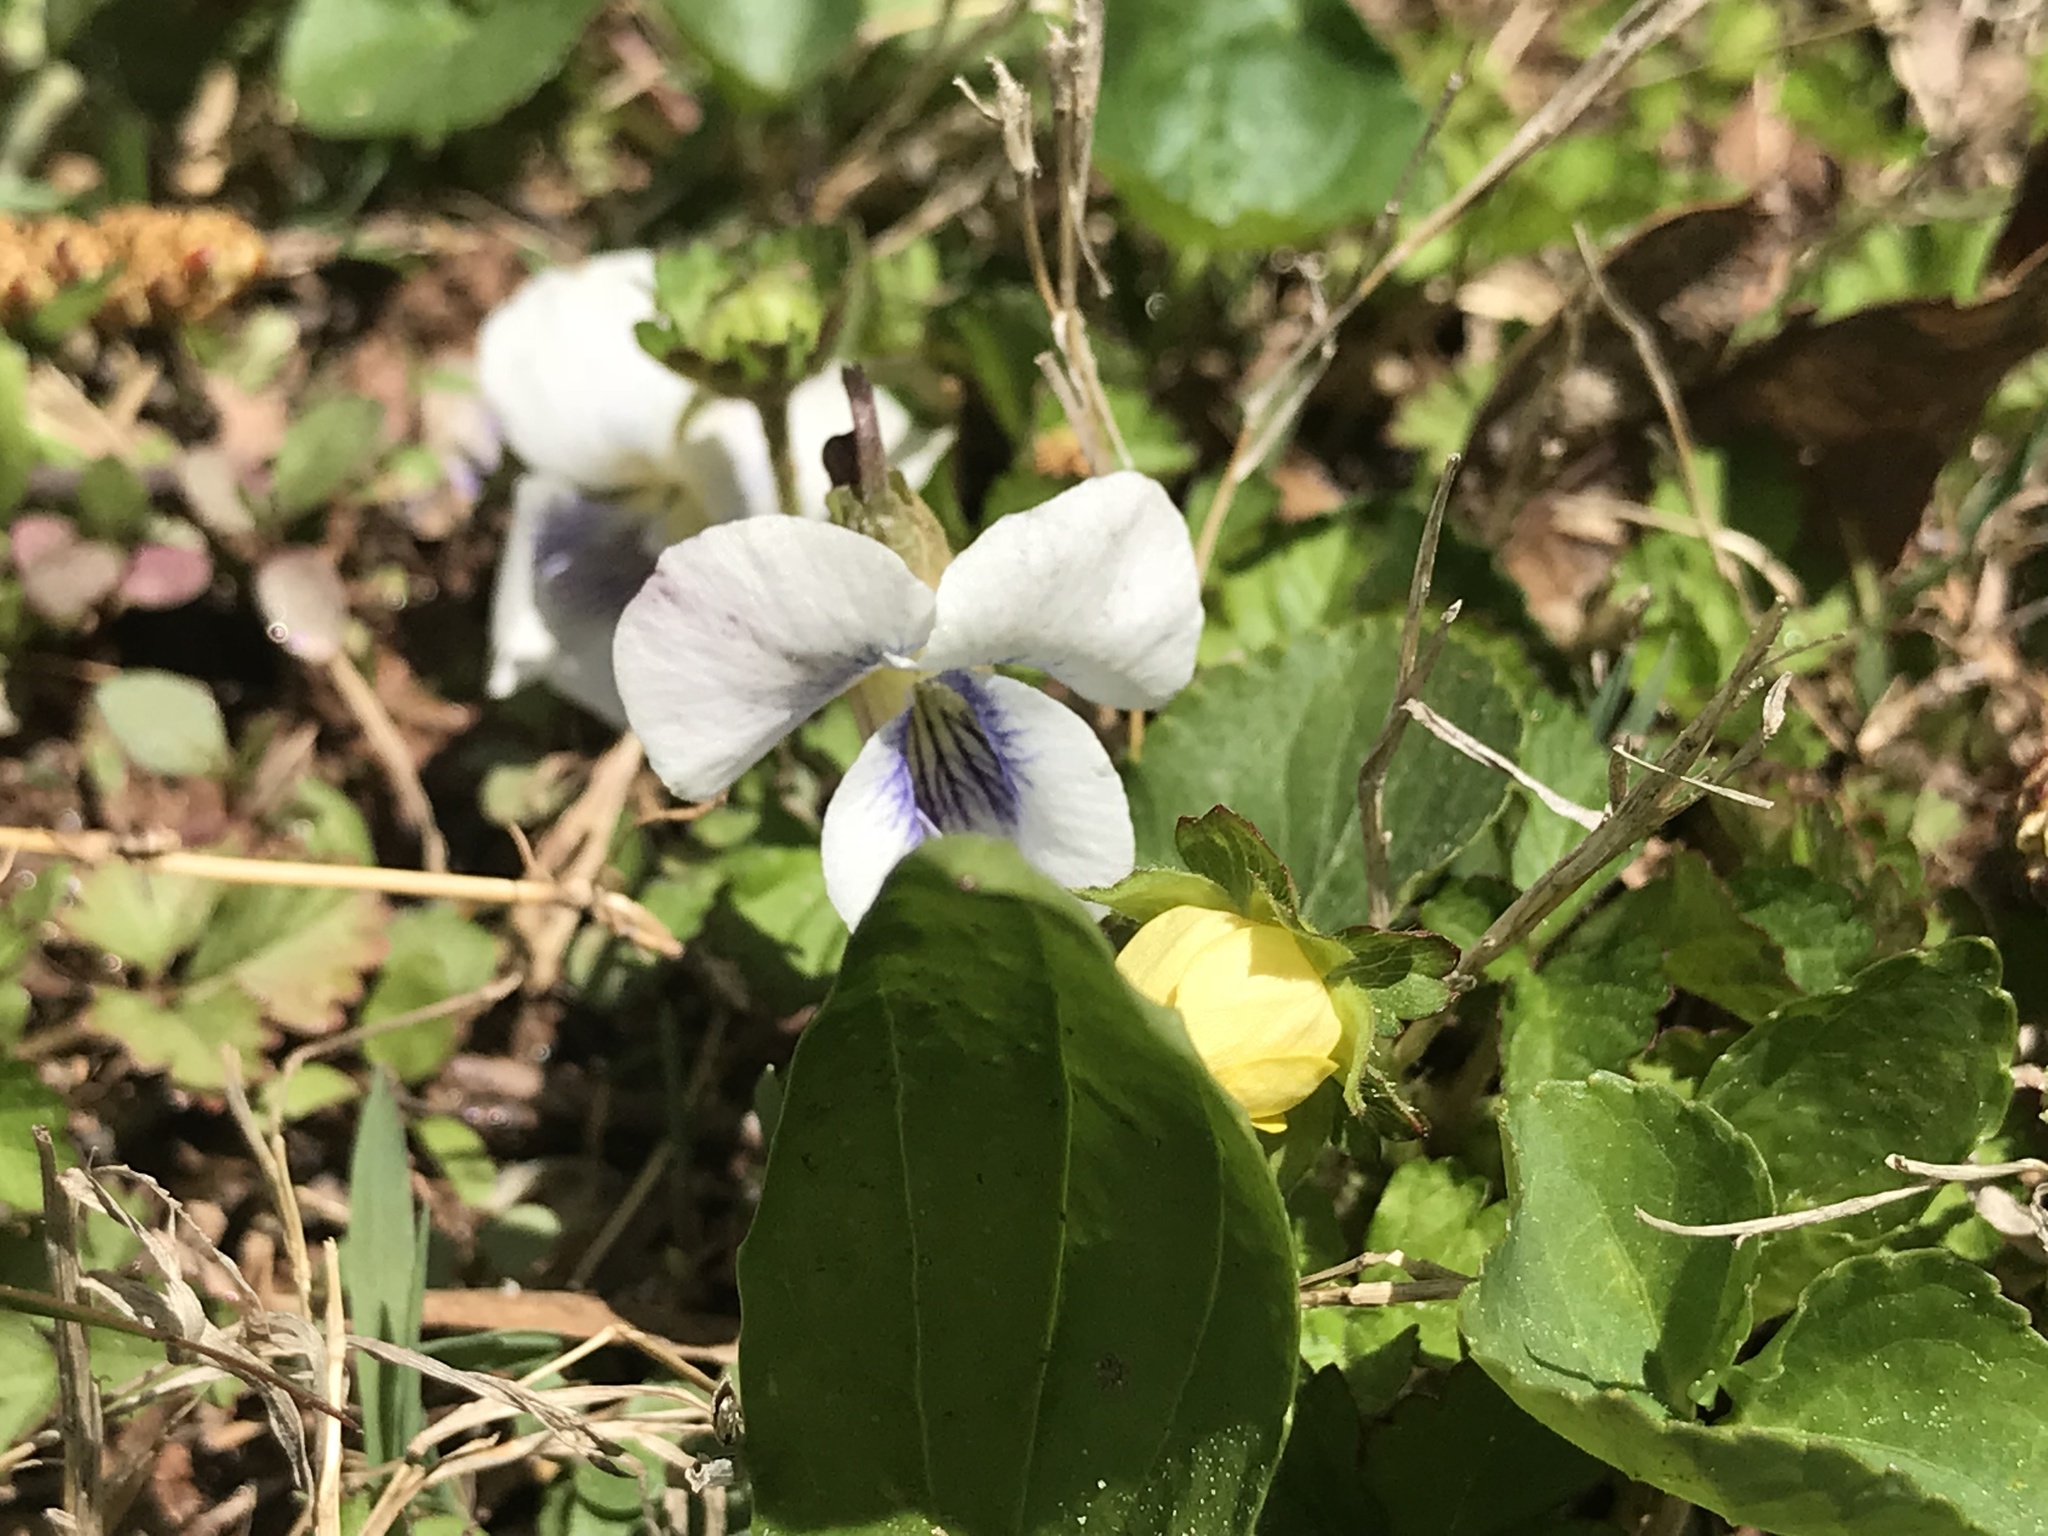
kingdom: Plantae
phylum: Tracheophyta
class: Magnoliopsida
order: Malpighiales
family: Violaceae
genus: Viola
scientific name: Viola sororia
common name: Dooryard violet
